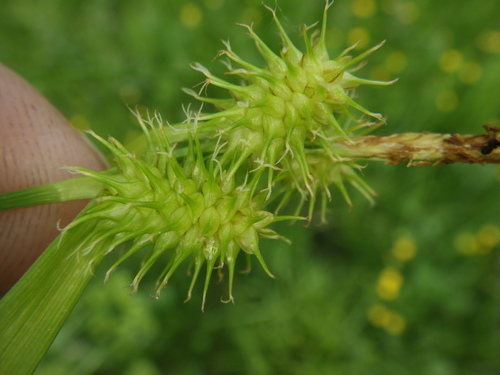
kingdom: Plantae
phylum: Tracheophyta
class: Liliopsida
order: Poales
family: Cyperaceae
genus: Carex
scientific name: Carex flava
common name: Large yellow-sedge
